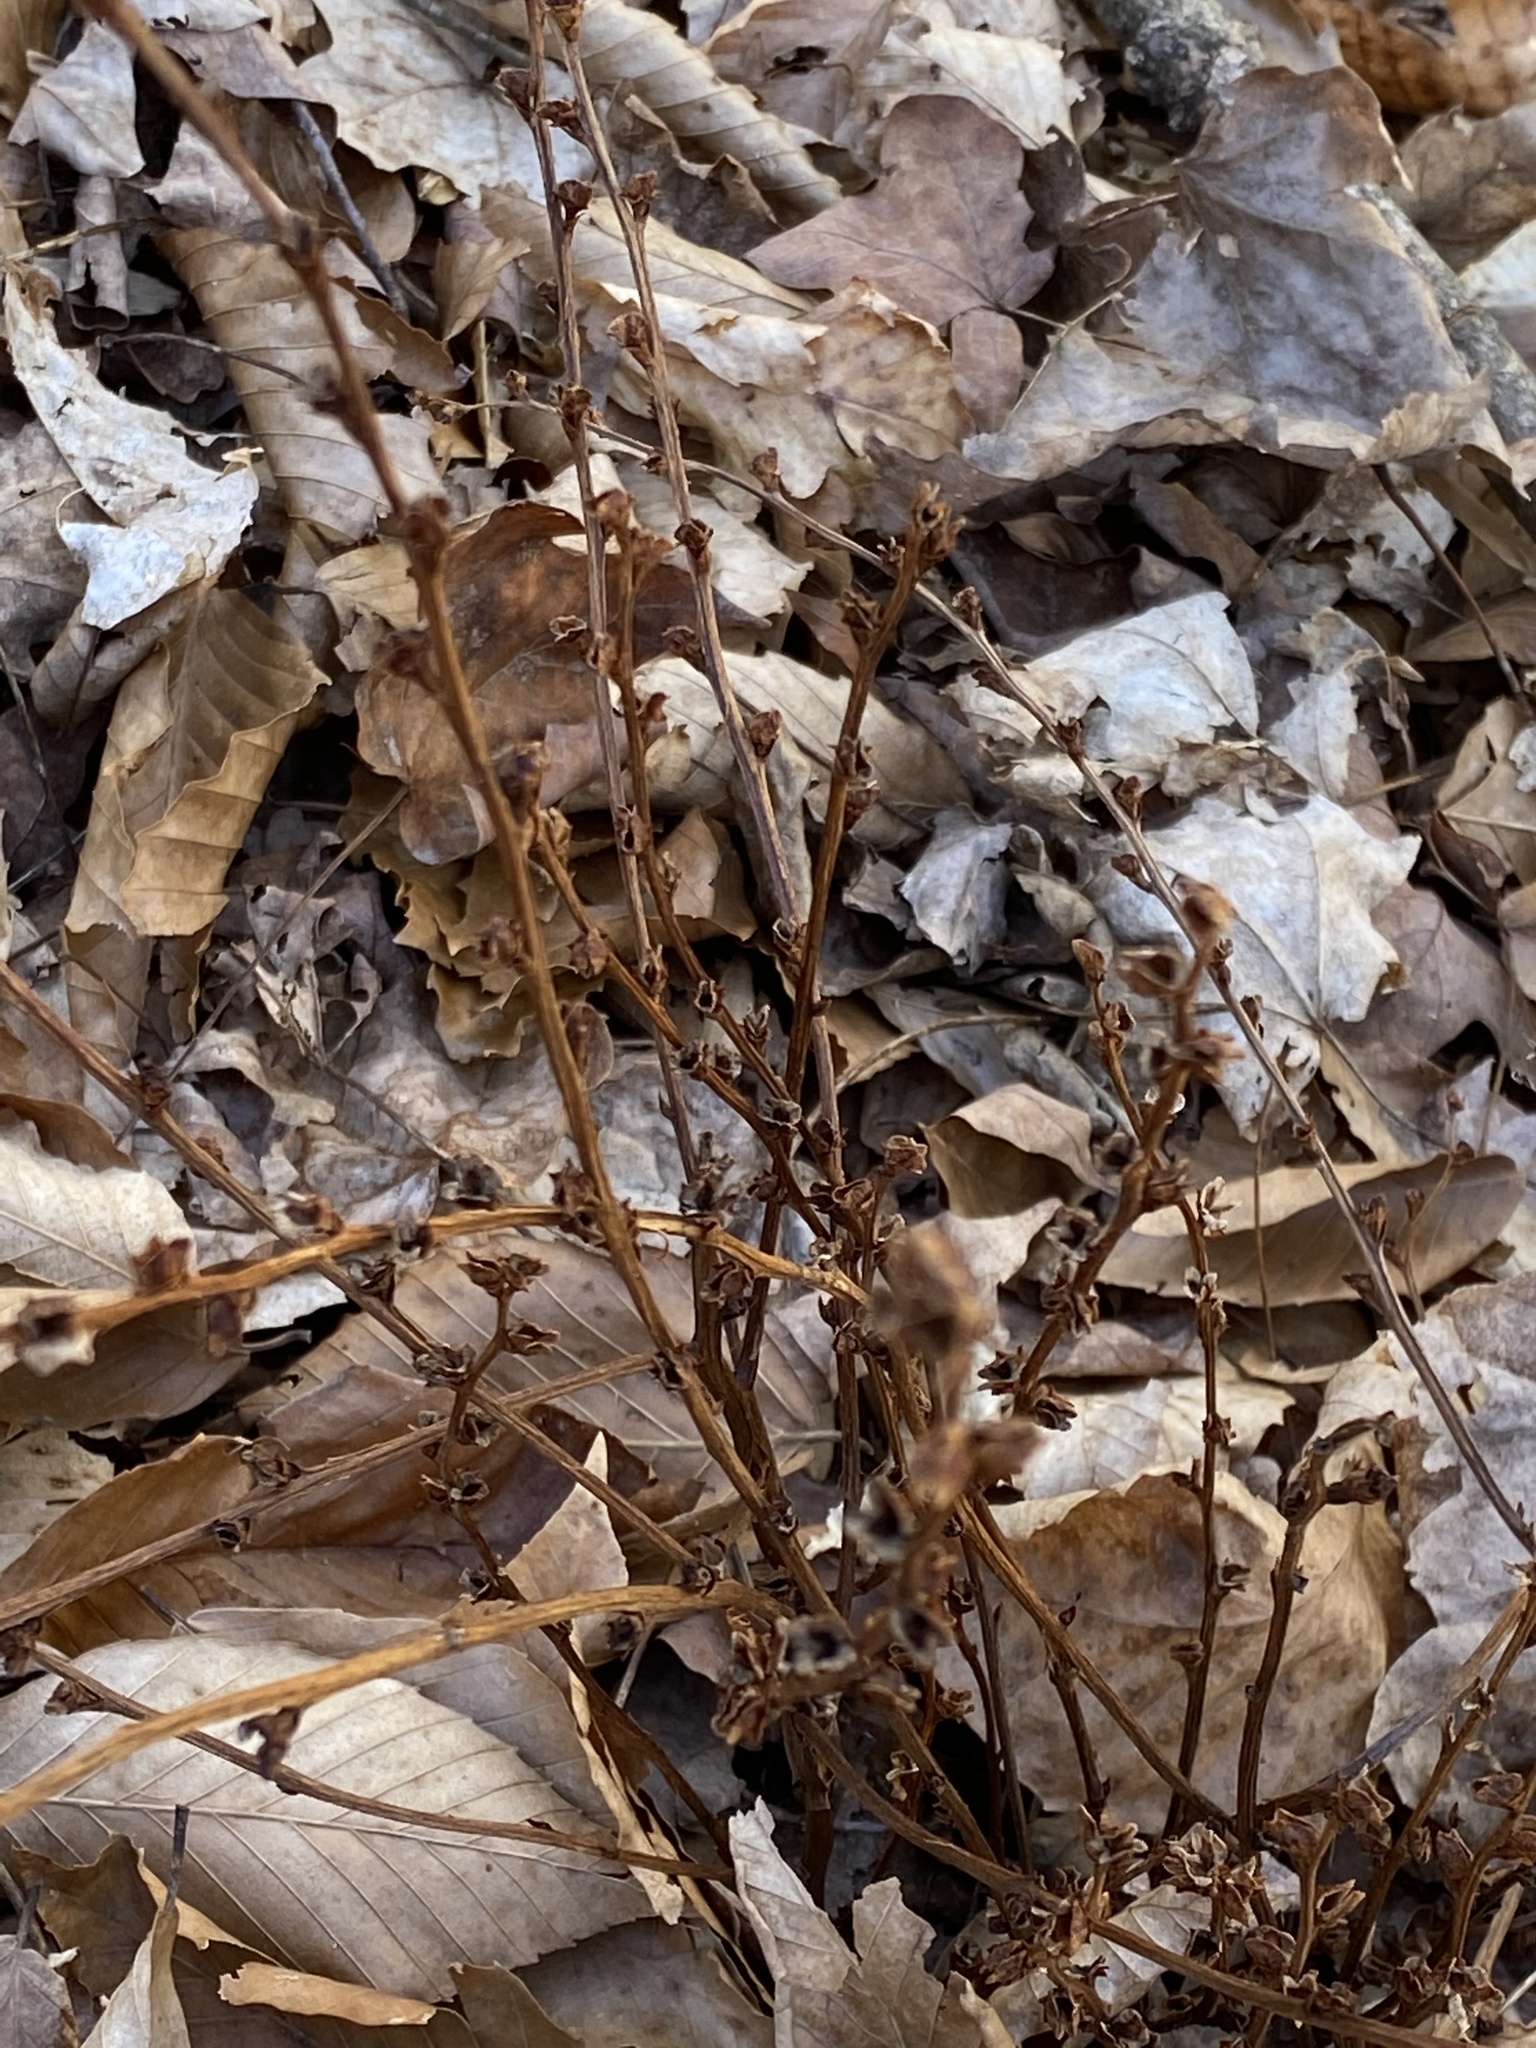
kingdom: Plantae
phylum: Tracheophyta
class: Magnoliopsida
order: Lamiales
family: Orobanchaceae
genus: Epifagus
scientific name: Epifagus virginiana
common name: Beechdrops
